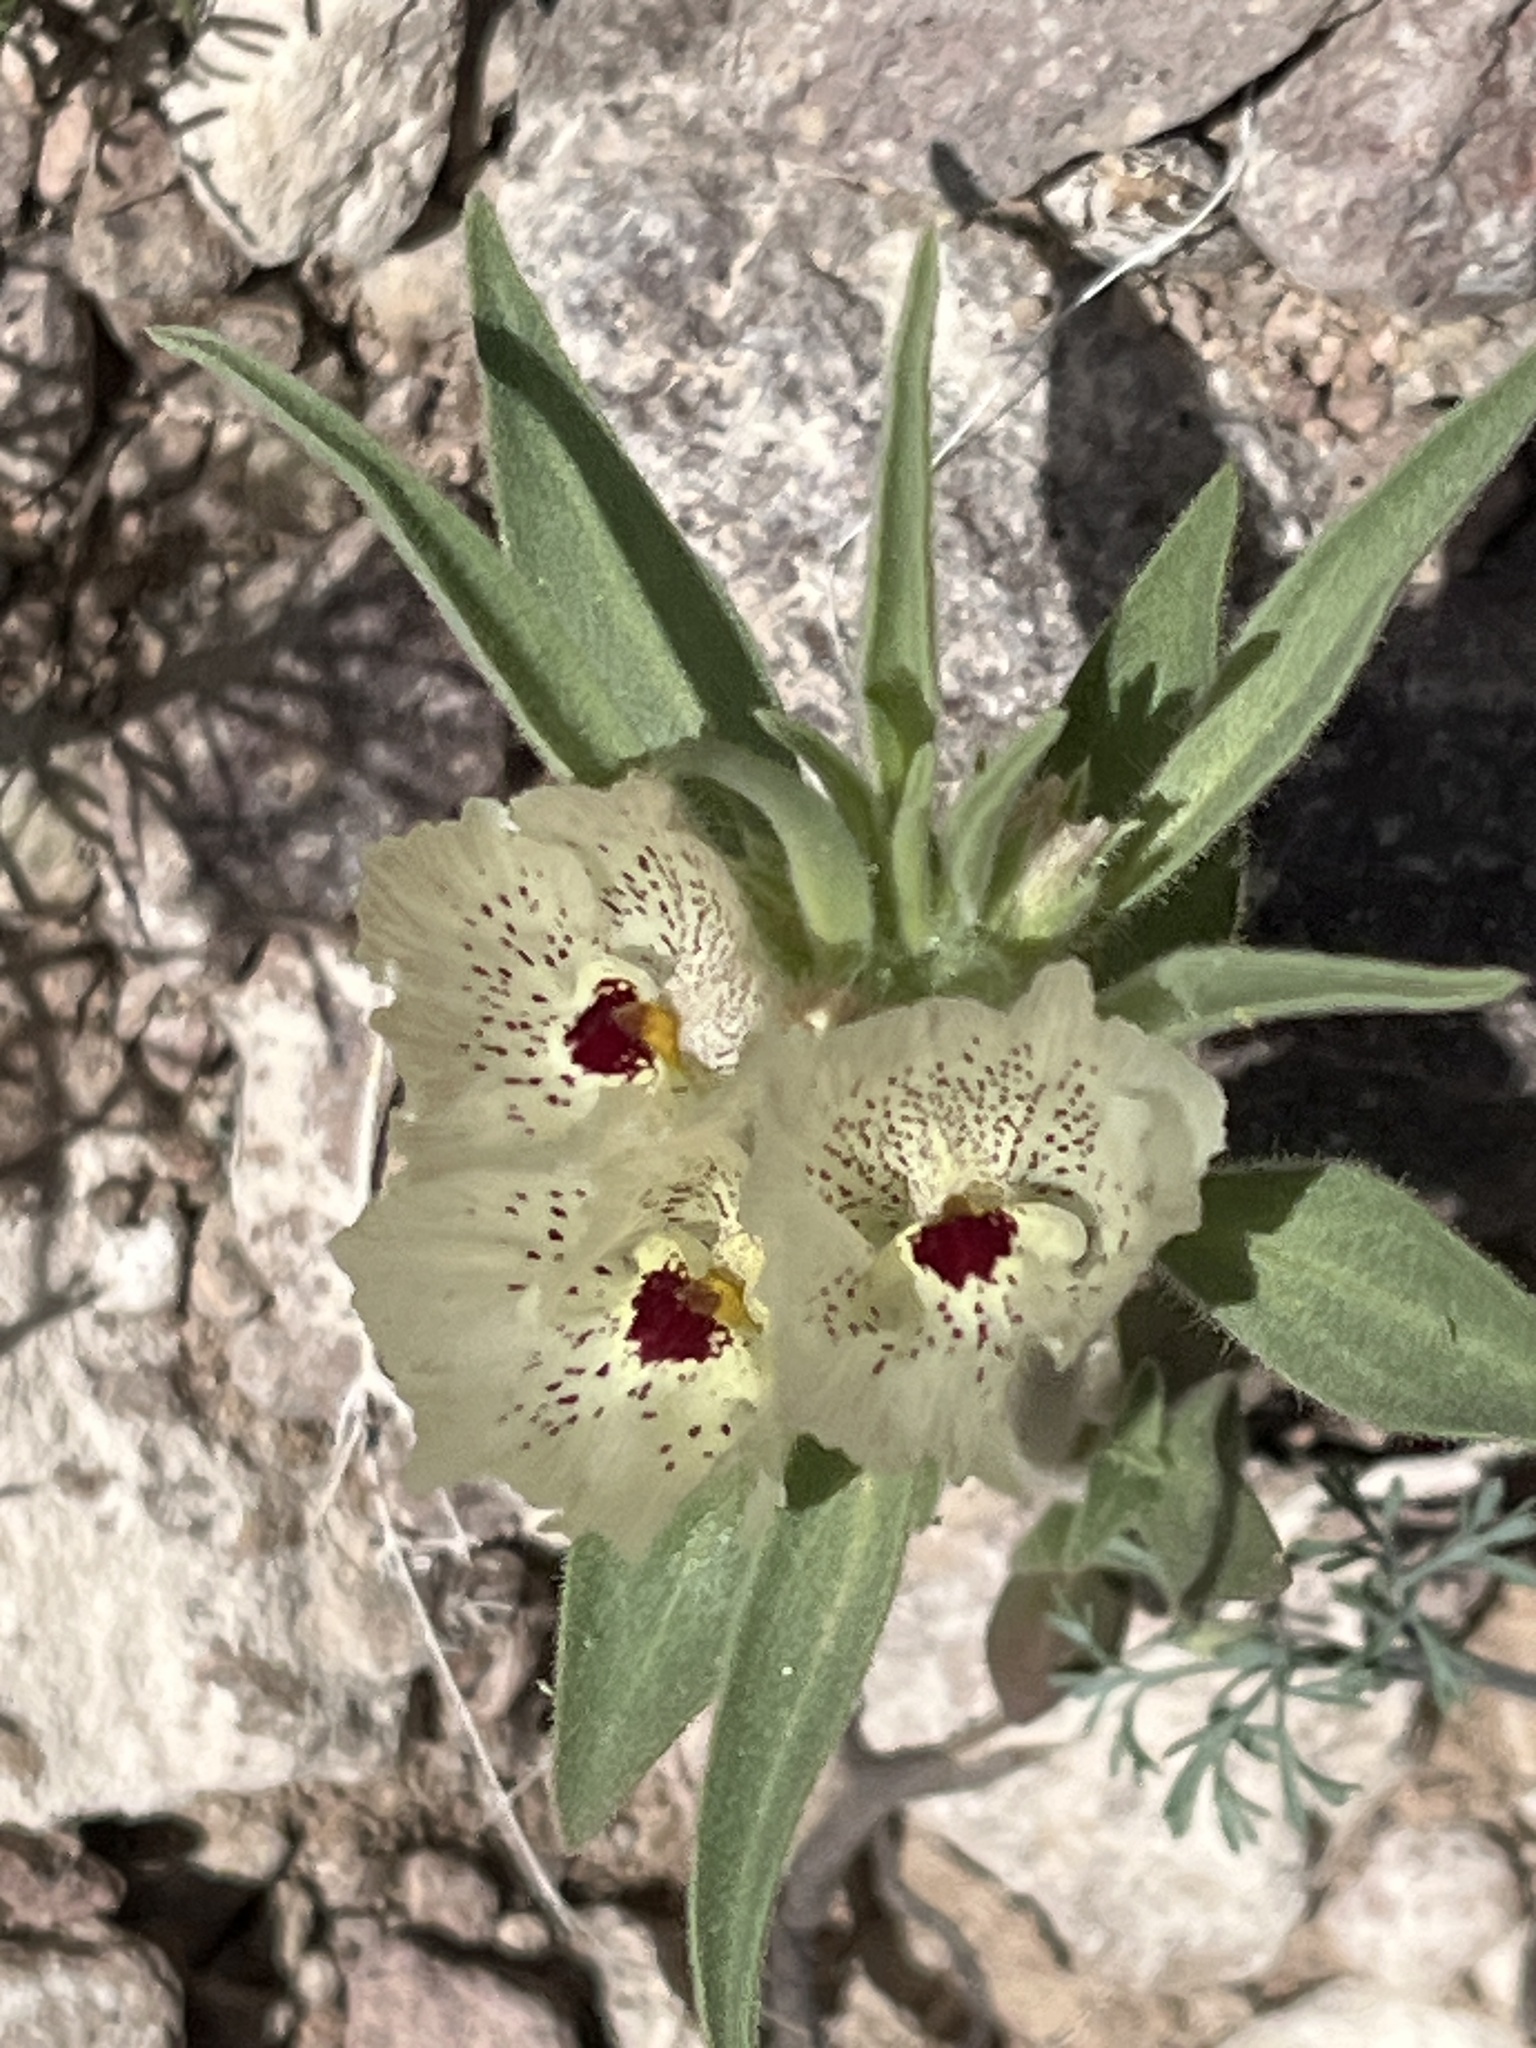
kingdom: Plantae
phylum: Tracheophyta
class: Magnoliopsida
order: Lamiales
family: Plantaginaceae
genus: Mohavea
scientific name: Mohavea confertiflora
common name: Ghost flower
